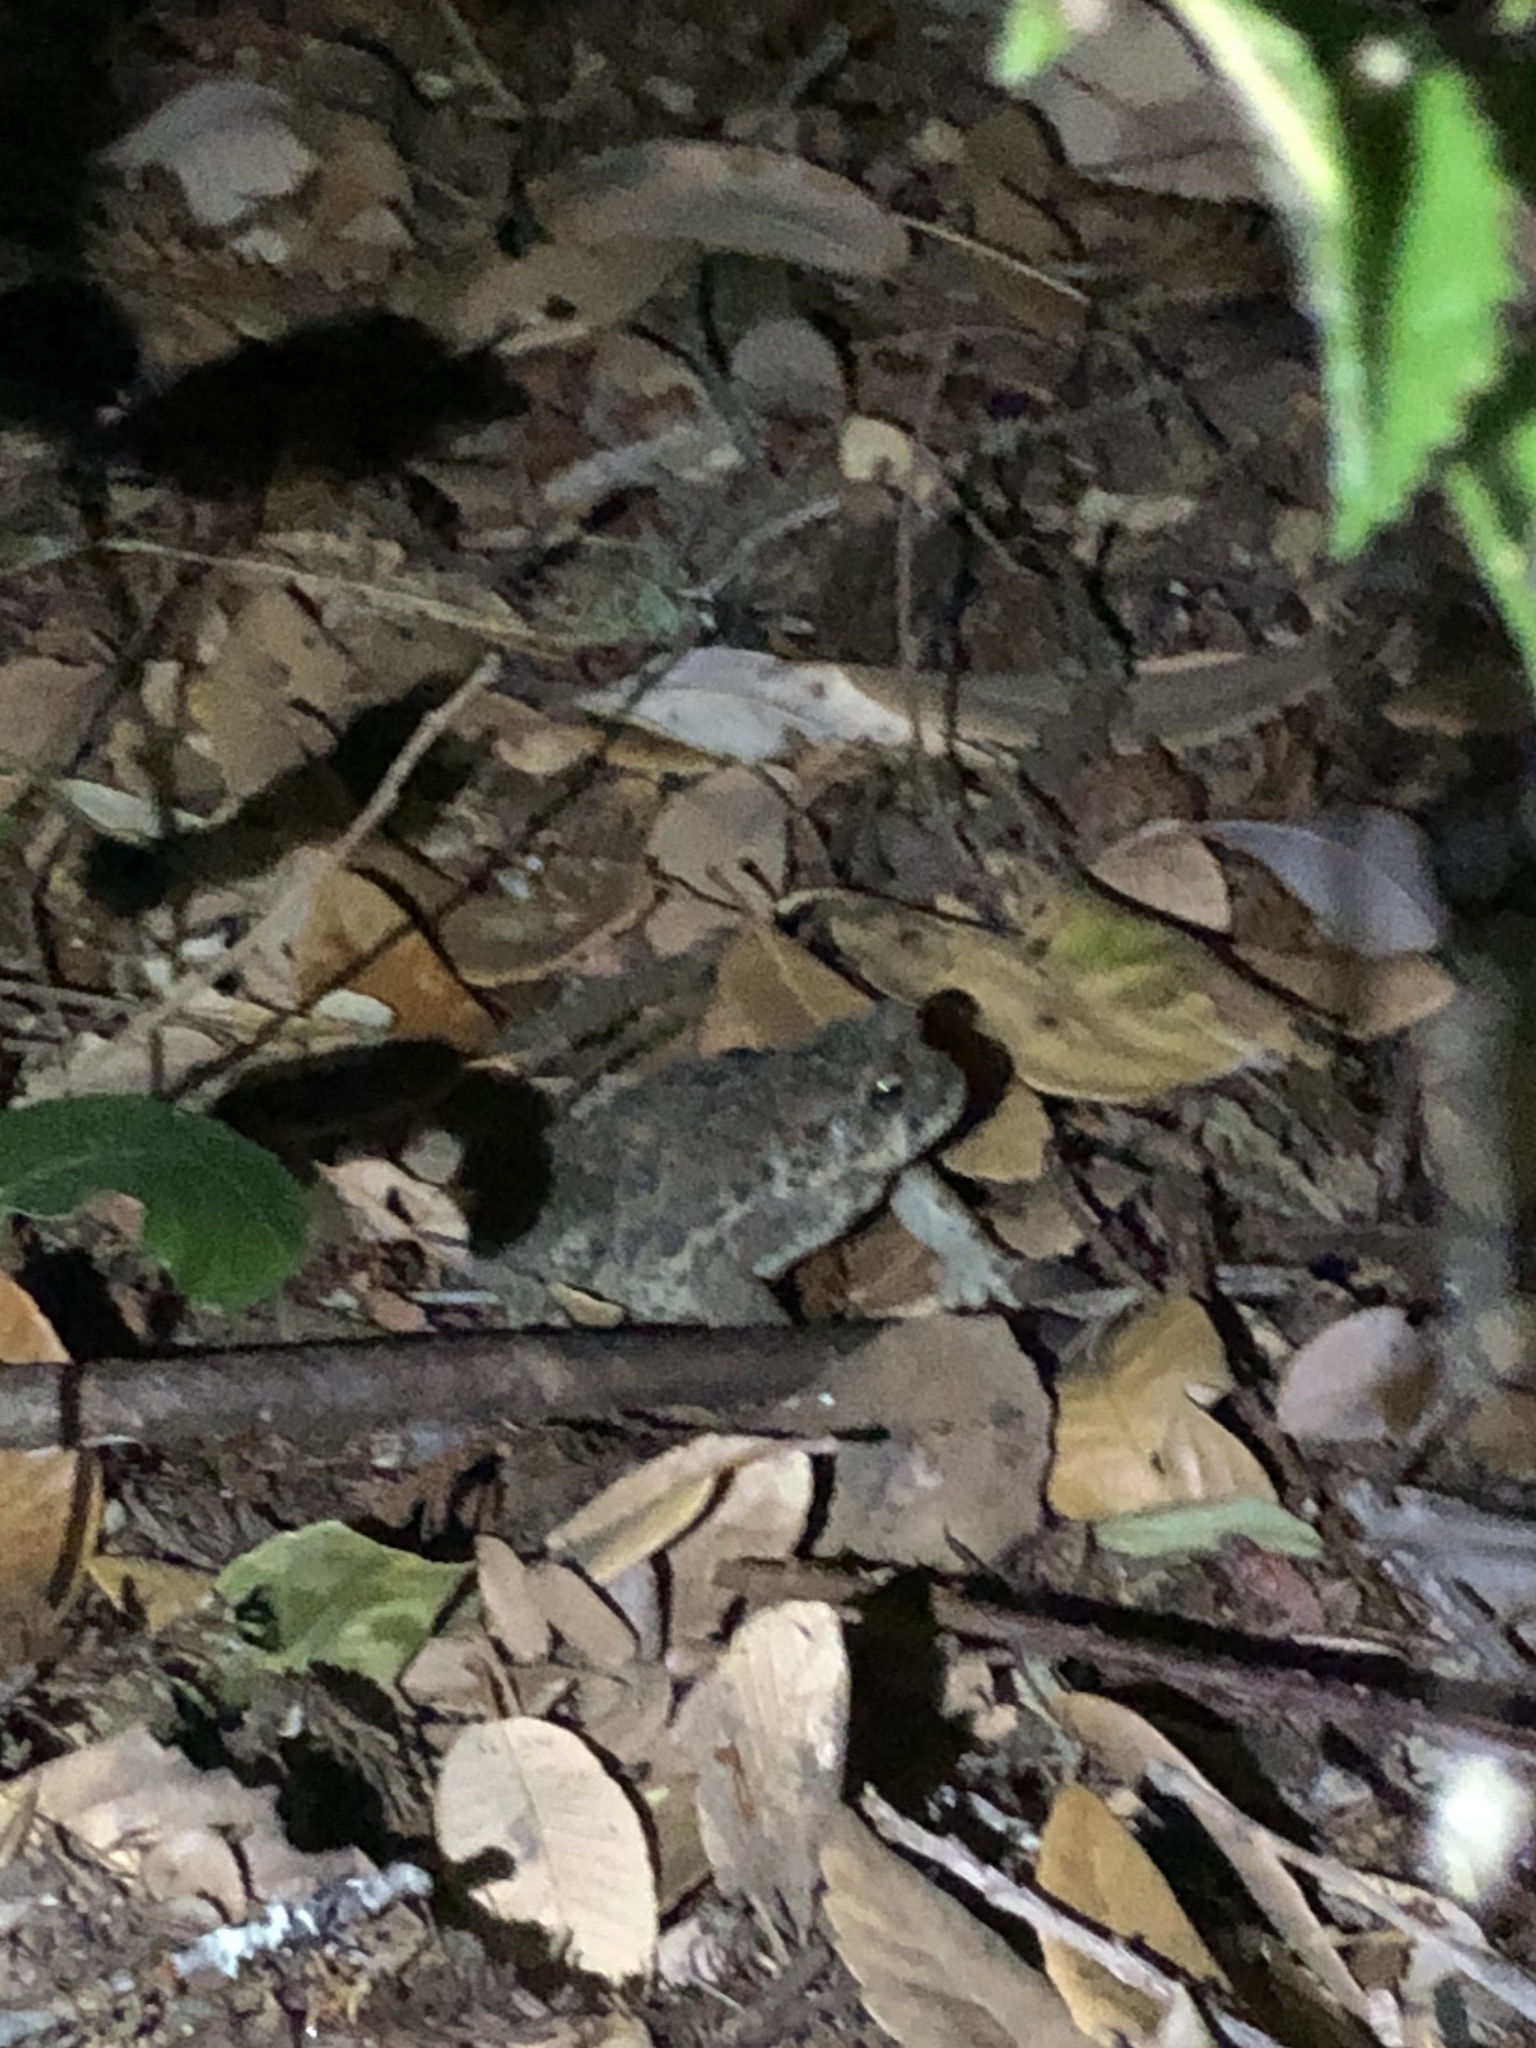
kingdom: Animalia
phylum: Chordata
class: Amphibia
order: Anura
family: Bufonidae
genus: Anaxyrus
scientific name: Anaxyrus boreas
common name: Western toad
